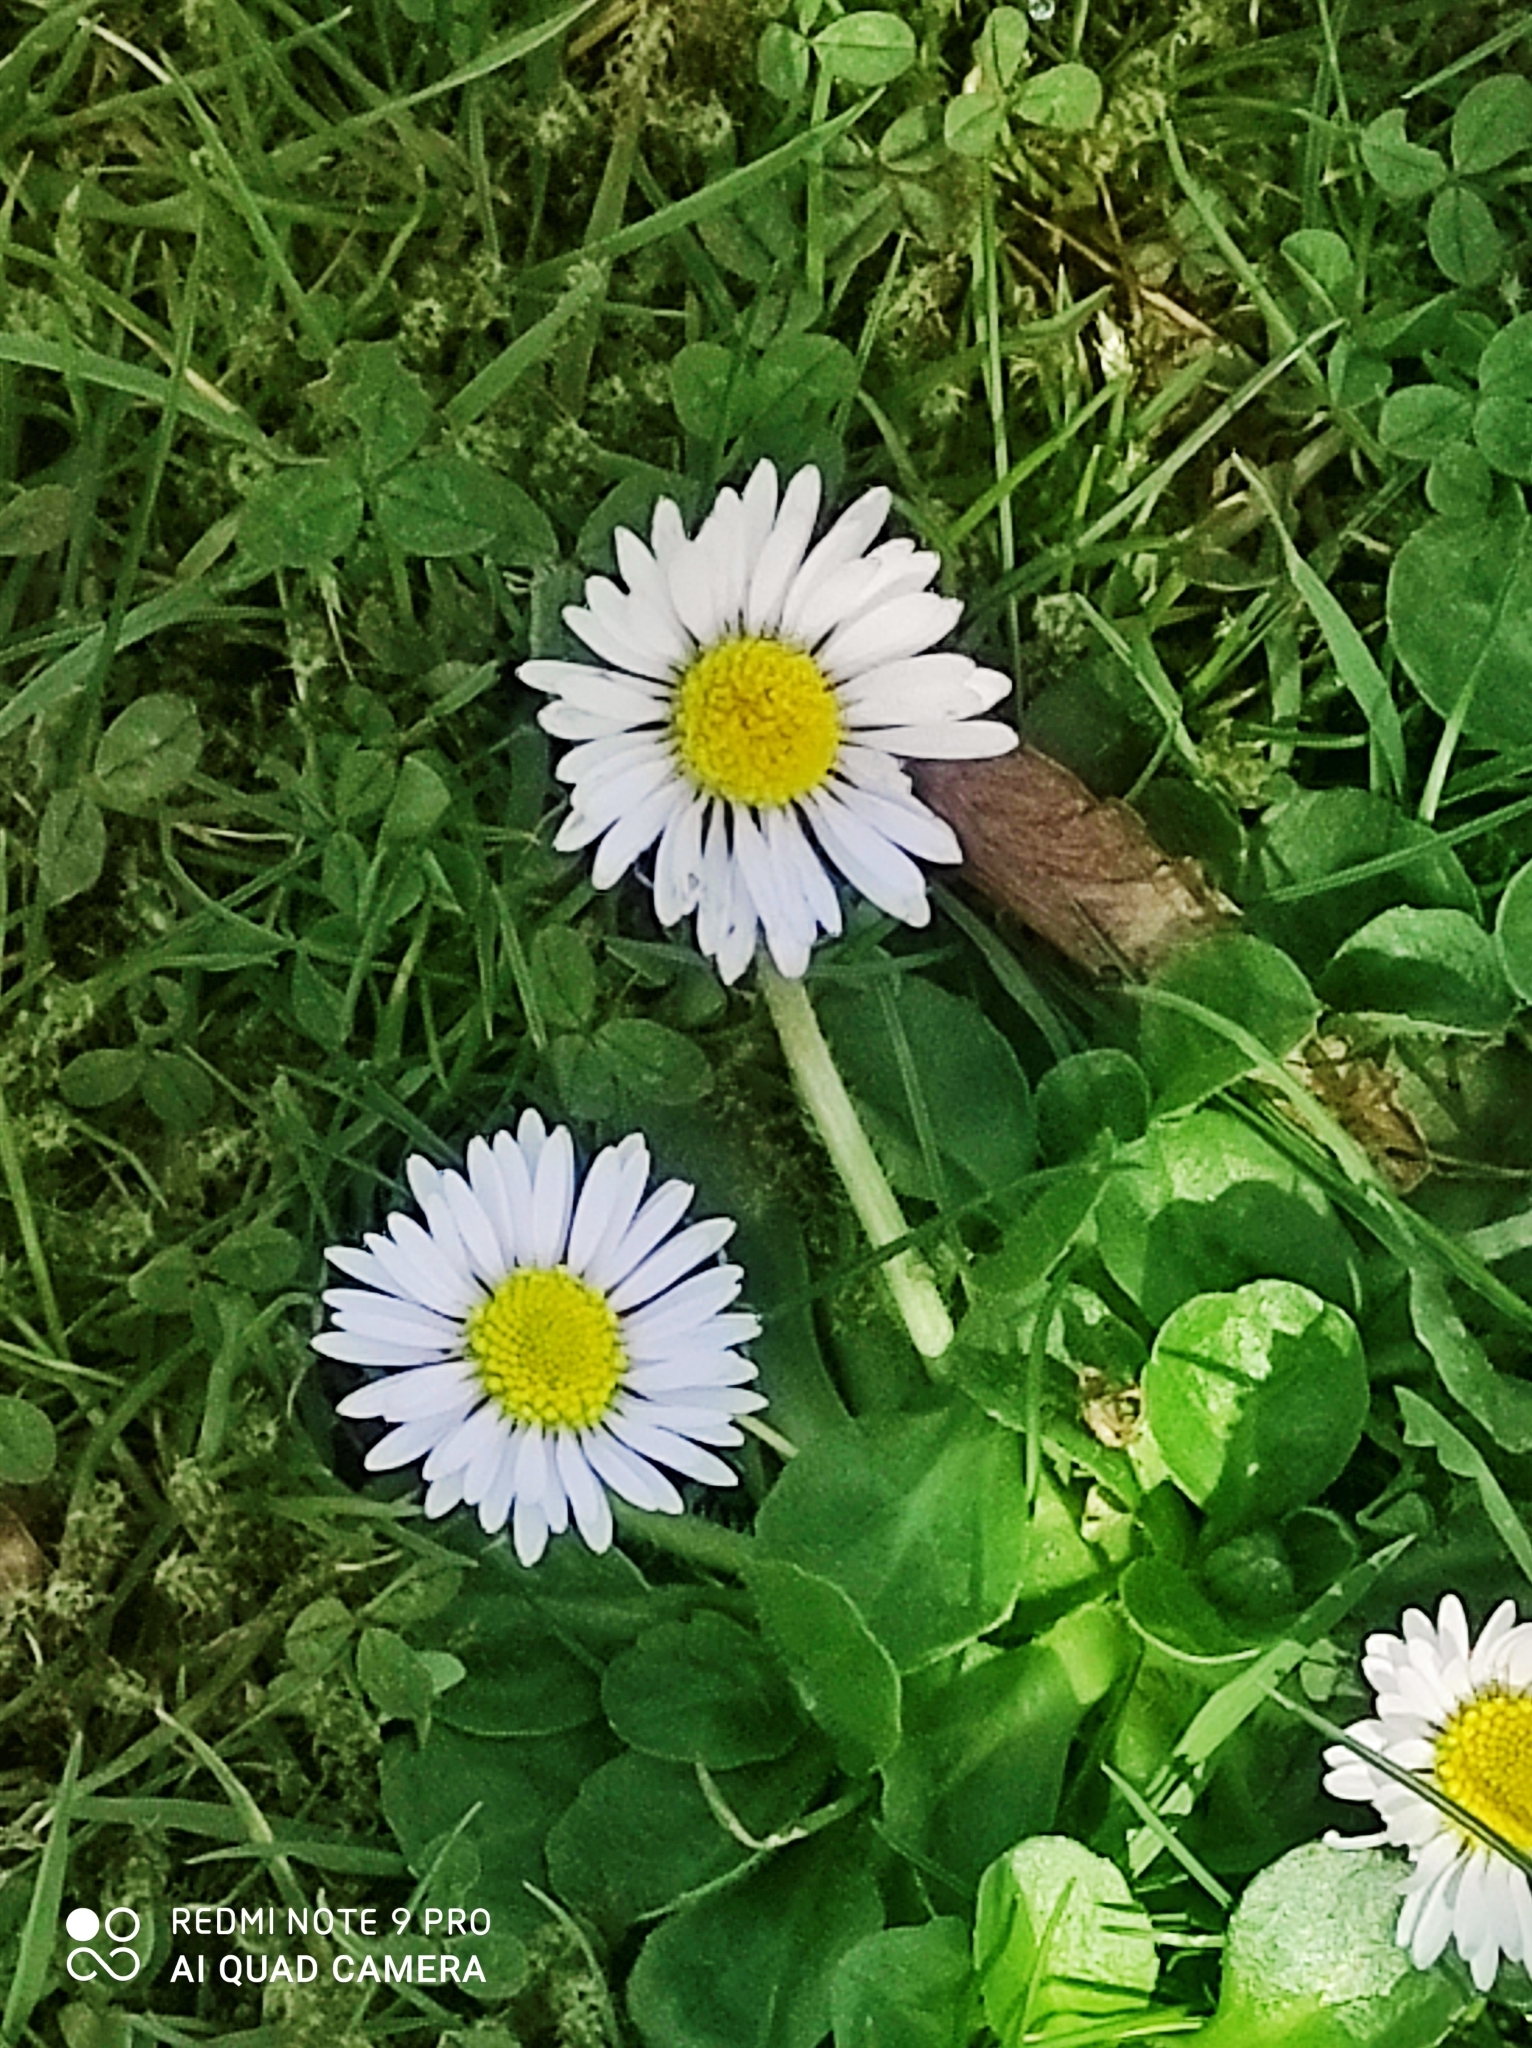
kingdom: Plantae
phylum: Tracheophyta
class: Magnoliopsida
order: Asterales
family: Asteraceae
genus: Bellis
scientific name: Bellis perennis
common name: Lawndaisy
